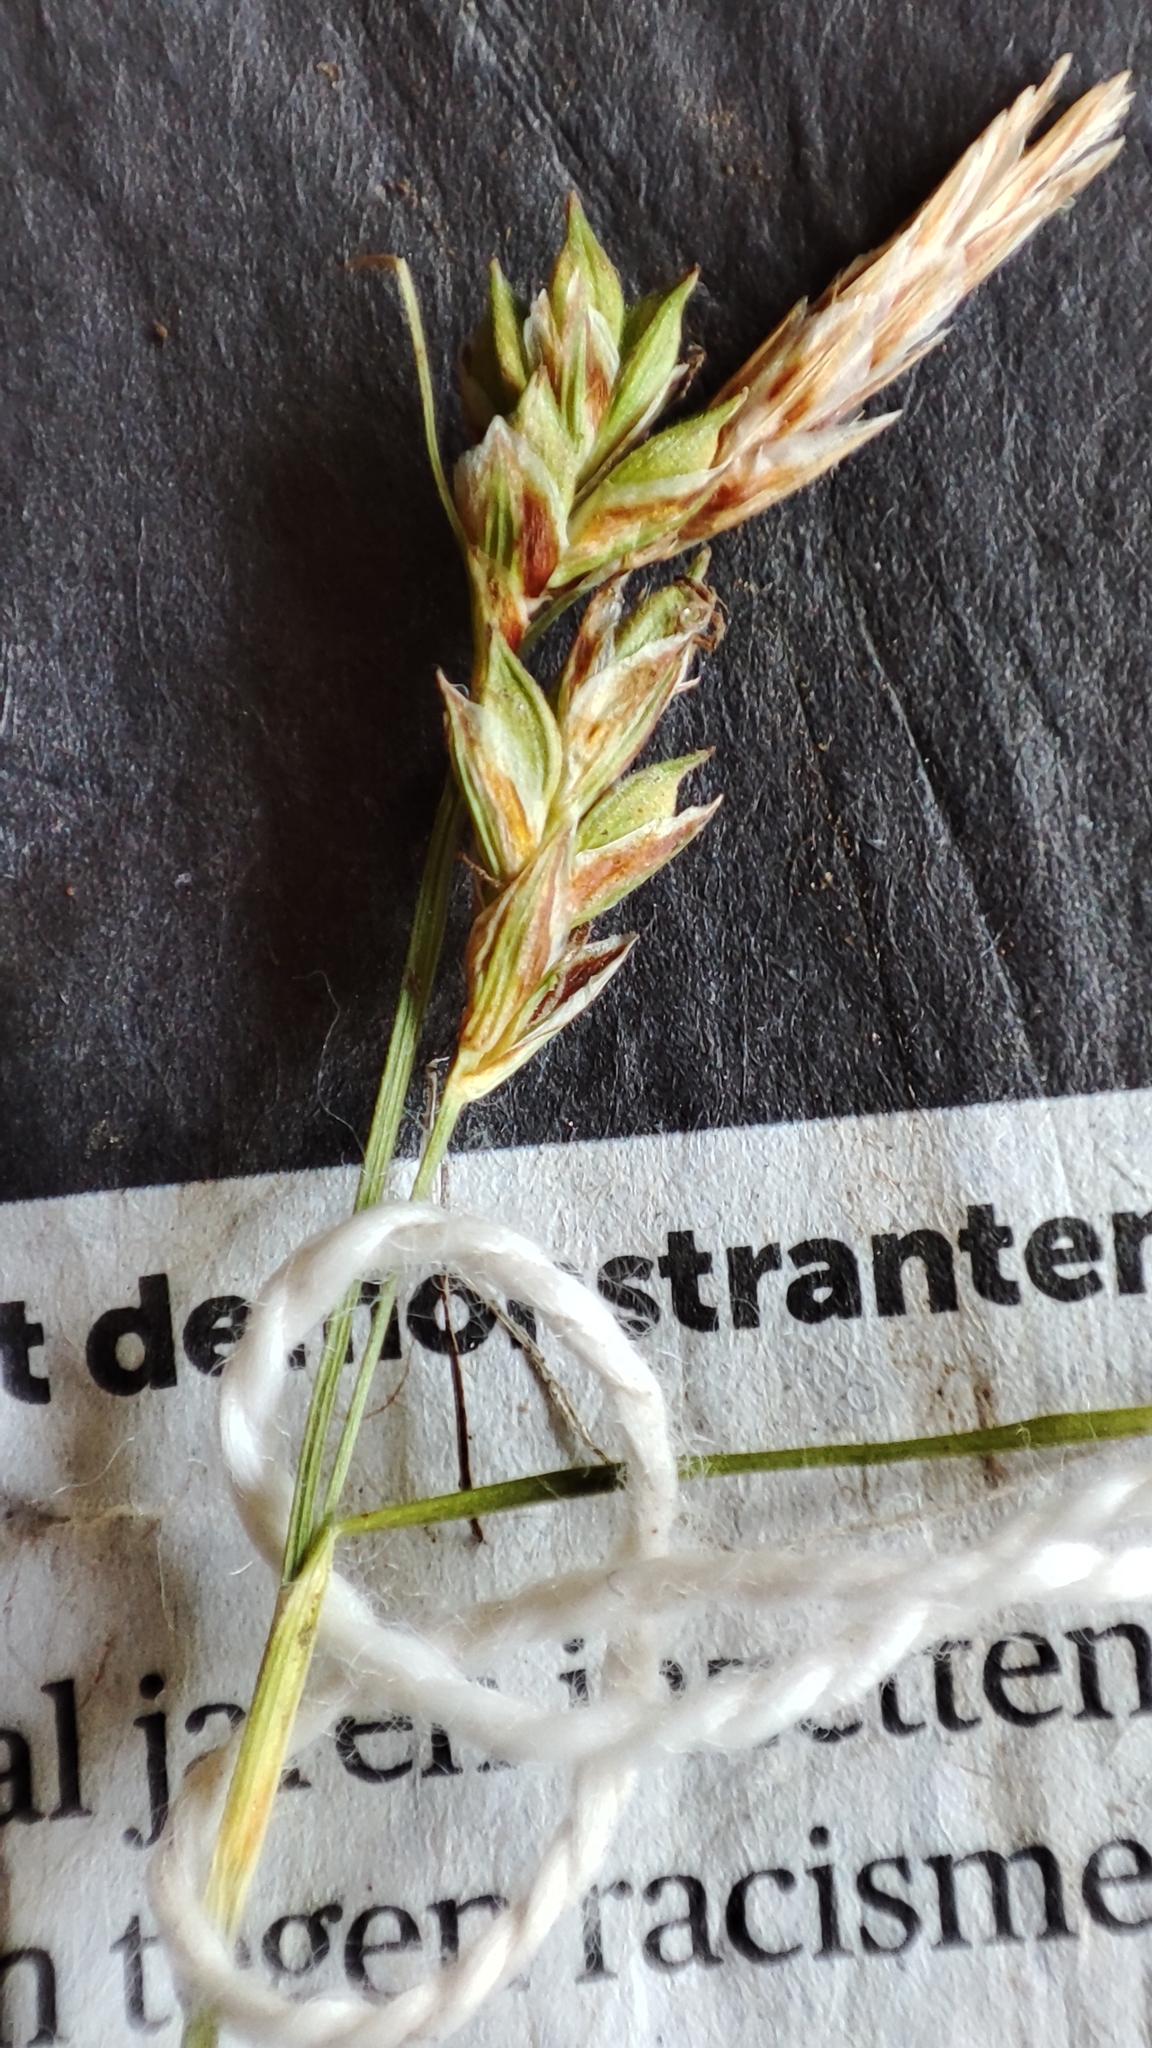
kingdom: Plantae
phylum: Tracheophyta
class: Liliopsida
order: Poales
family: Cyperaceae
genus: Carex
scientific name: Carex depressa
